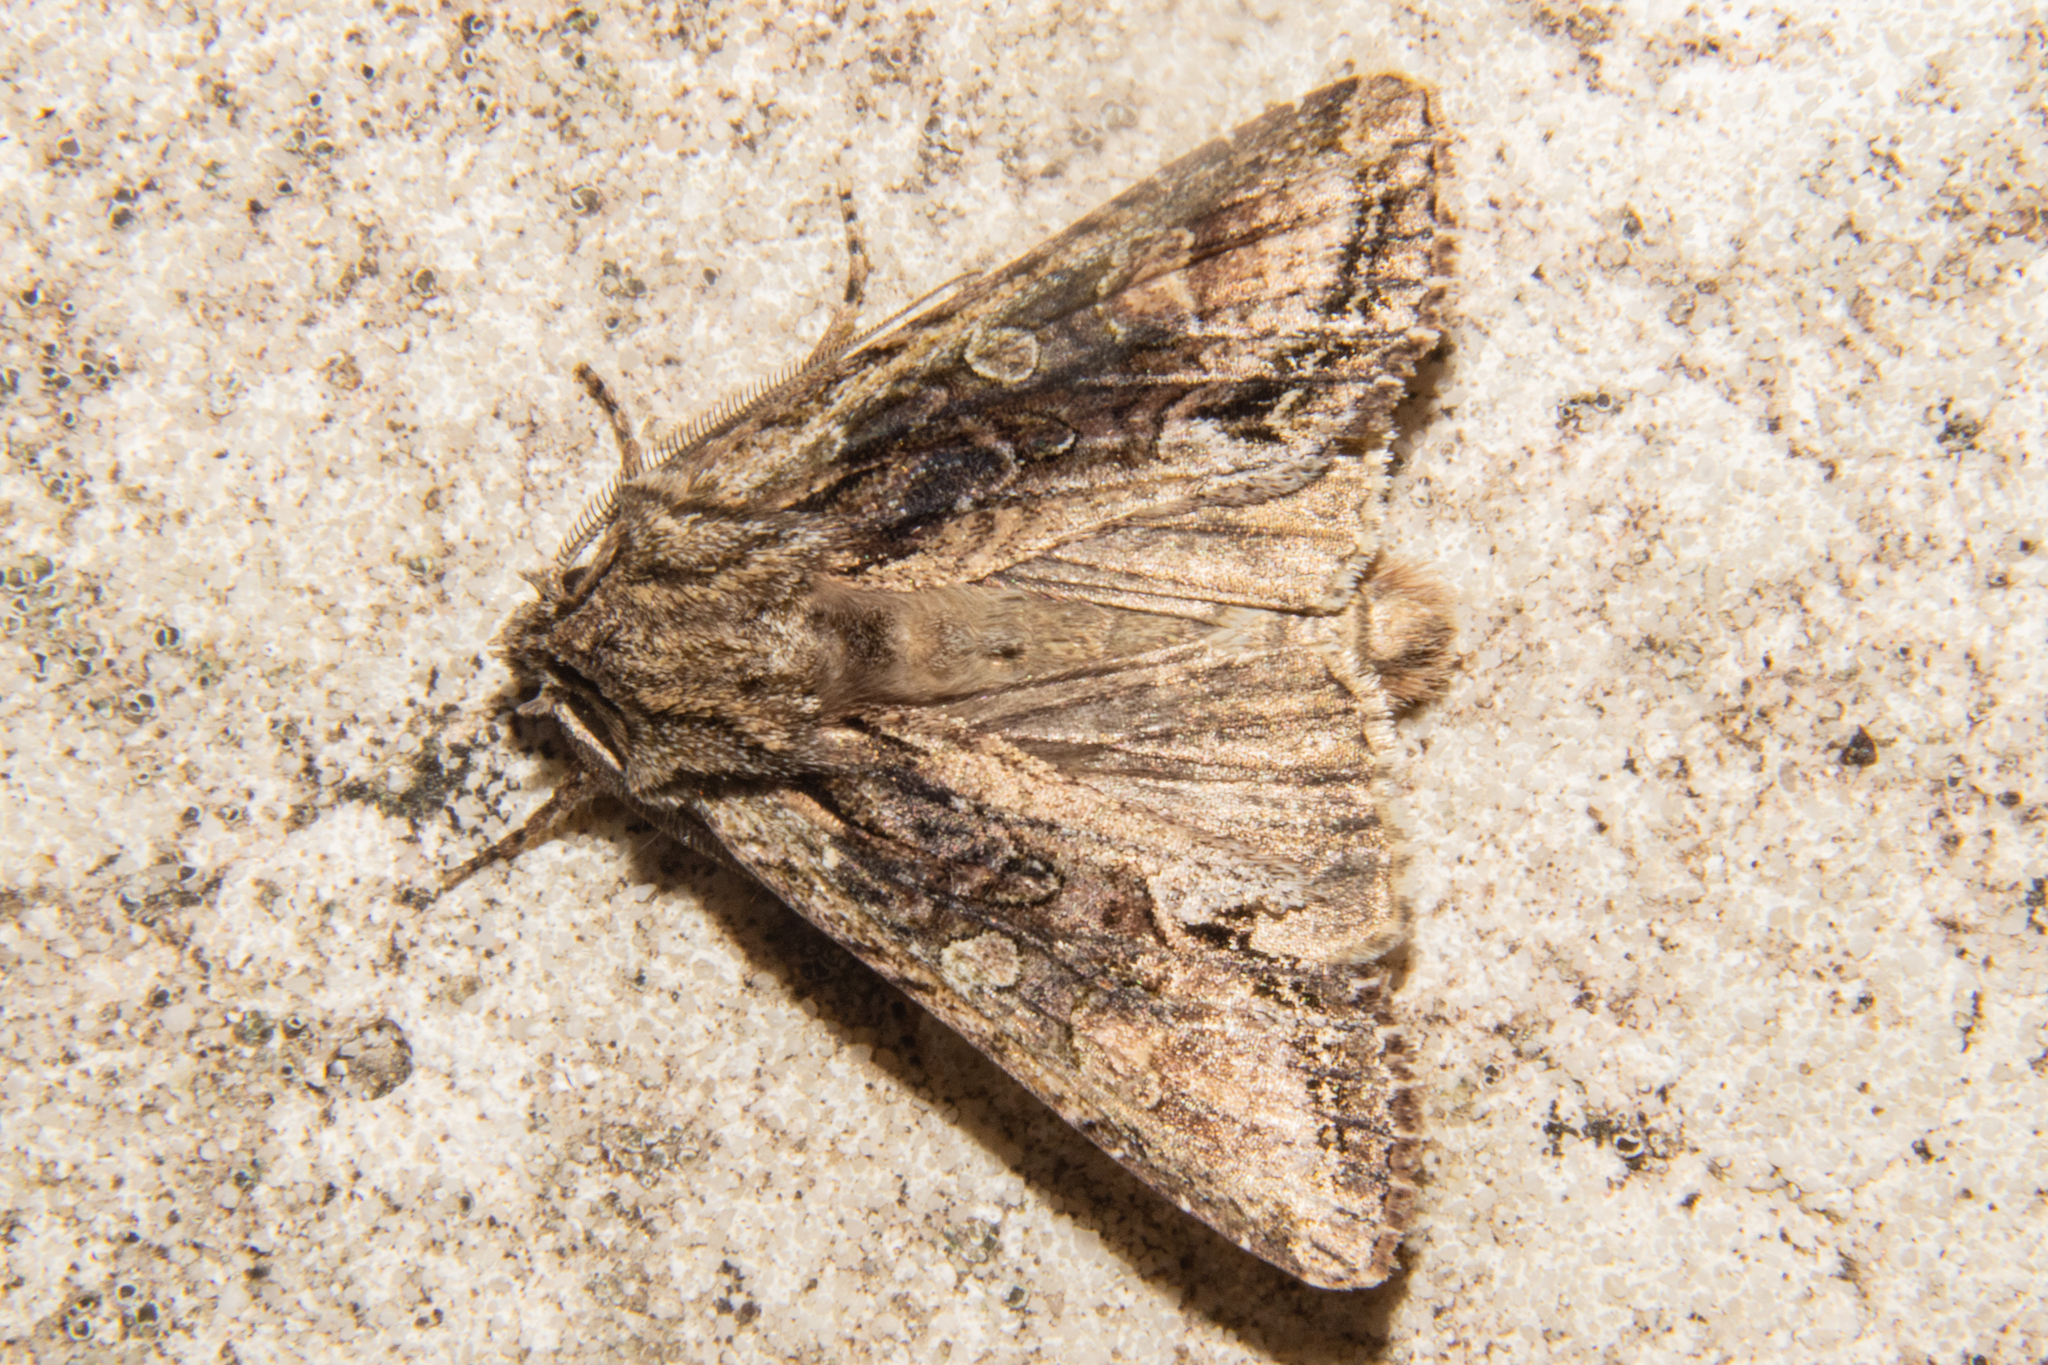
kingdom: Animalia
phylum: Arthropoda
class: Insecta
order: Lepidoptera
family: Noctuidae
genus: Ichneutica
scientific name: Ichneutica mutans
